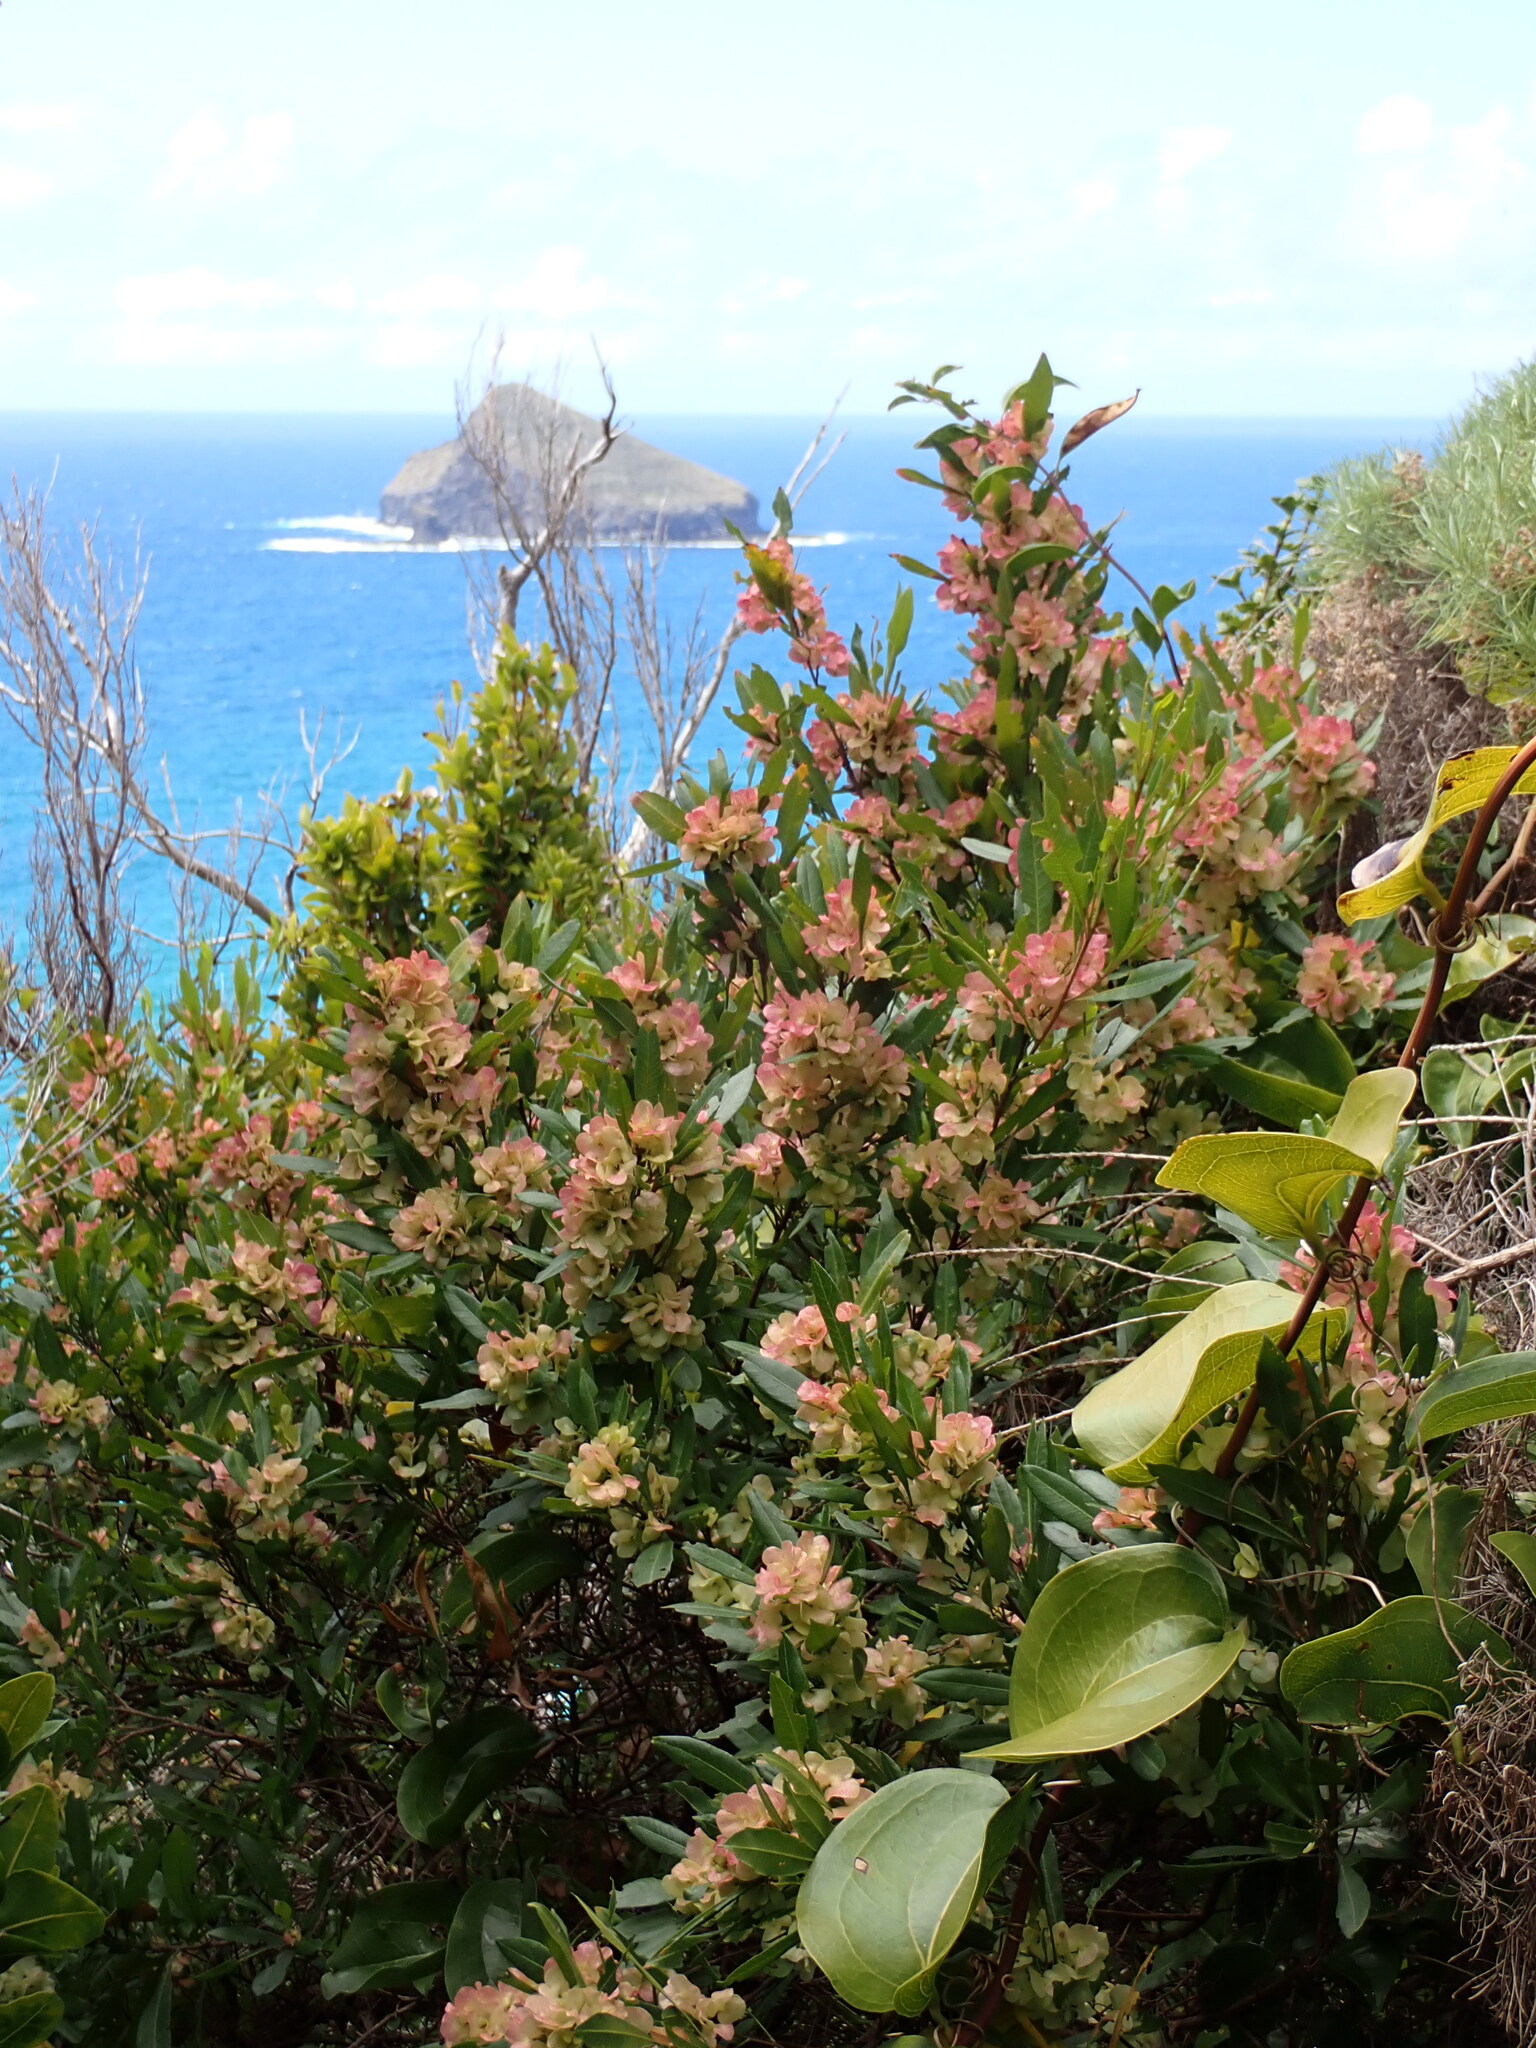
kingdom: Plantae
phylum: Tracheophyta
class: Magnoliopsida
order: Sapindales
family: Sapindaceae
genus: Dodonaea
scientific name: Dodonaea viscosa
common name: Hopbush
